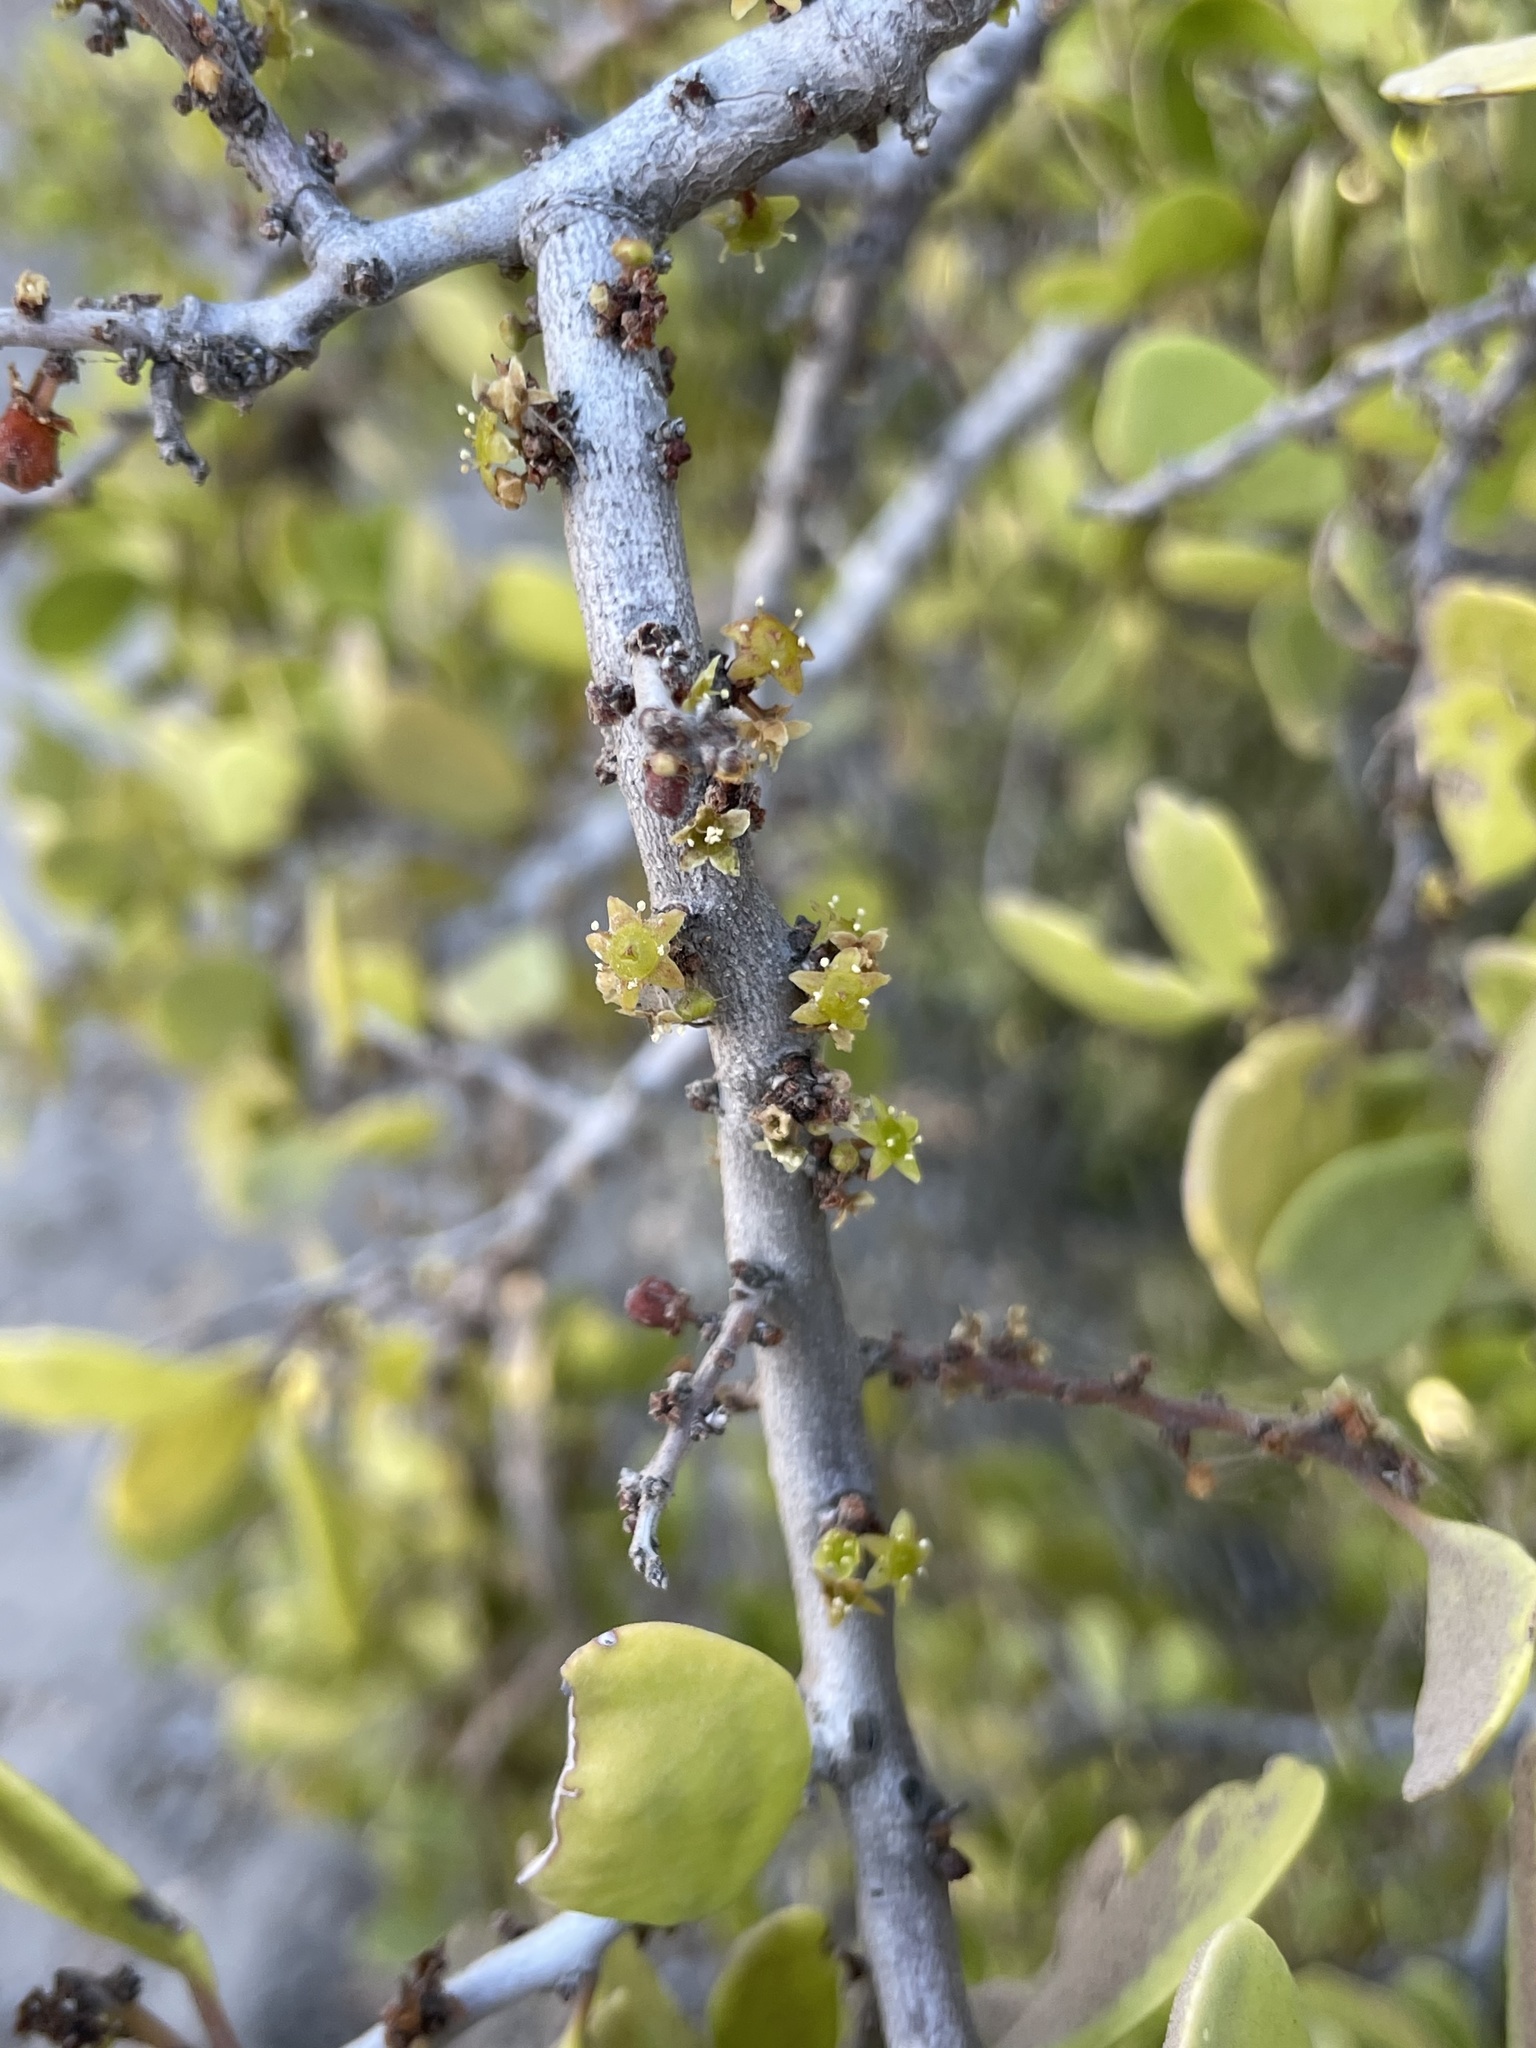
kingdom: Plantae
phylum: Tracheophyta
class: Magnoliopsida
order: Celastrales
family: Celastraceae
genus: Tricerma
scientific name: Tricerma phyllanthoides
